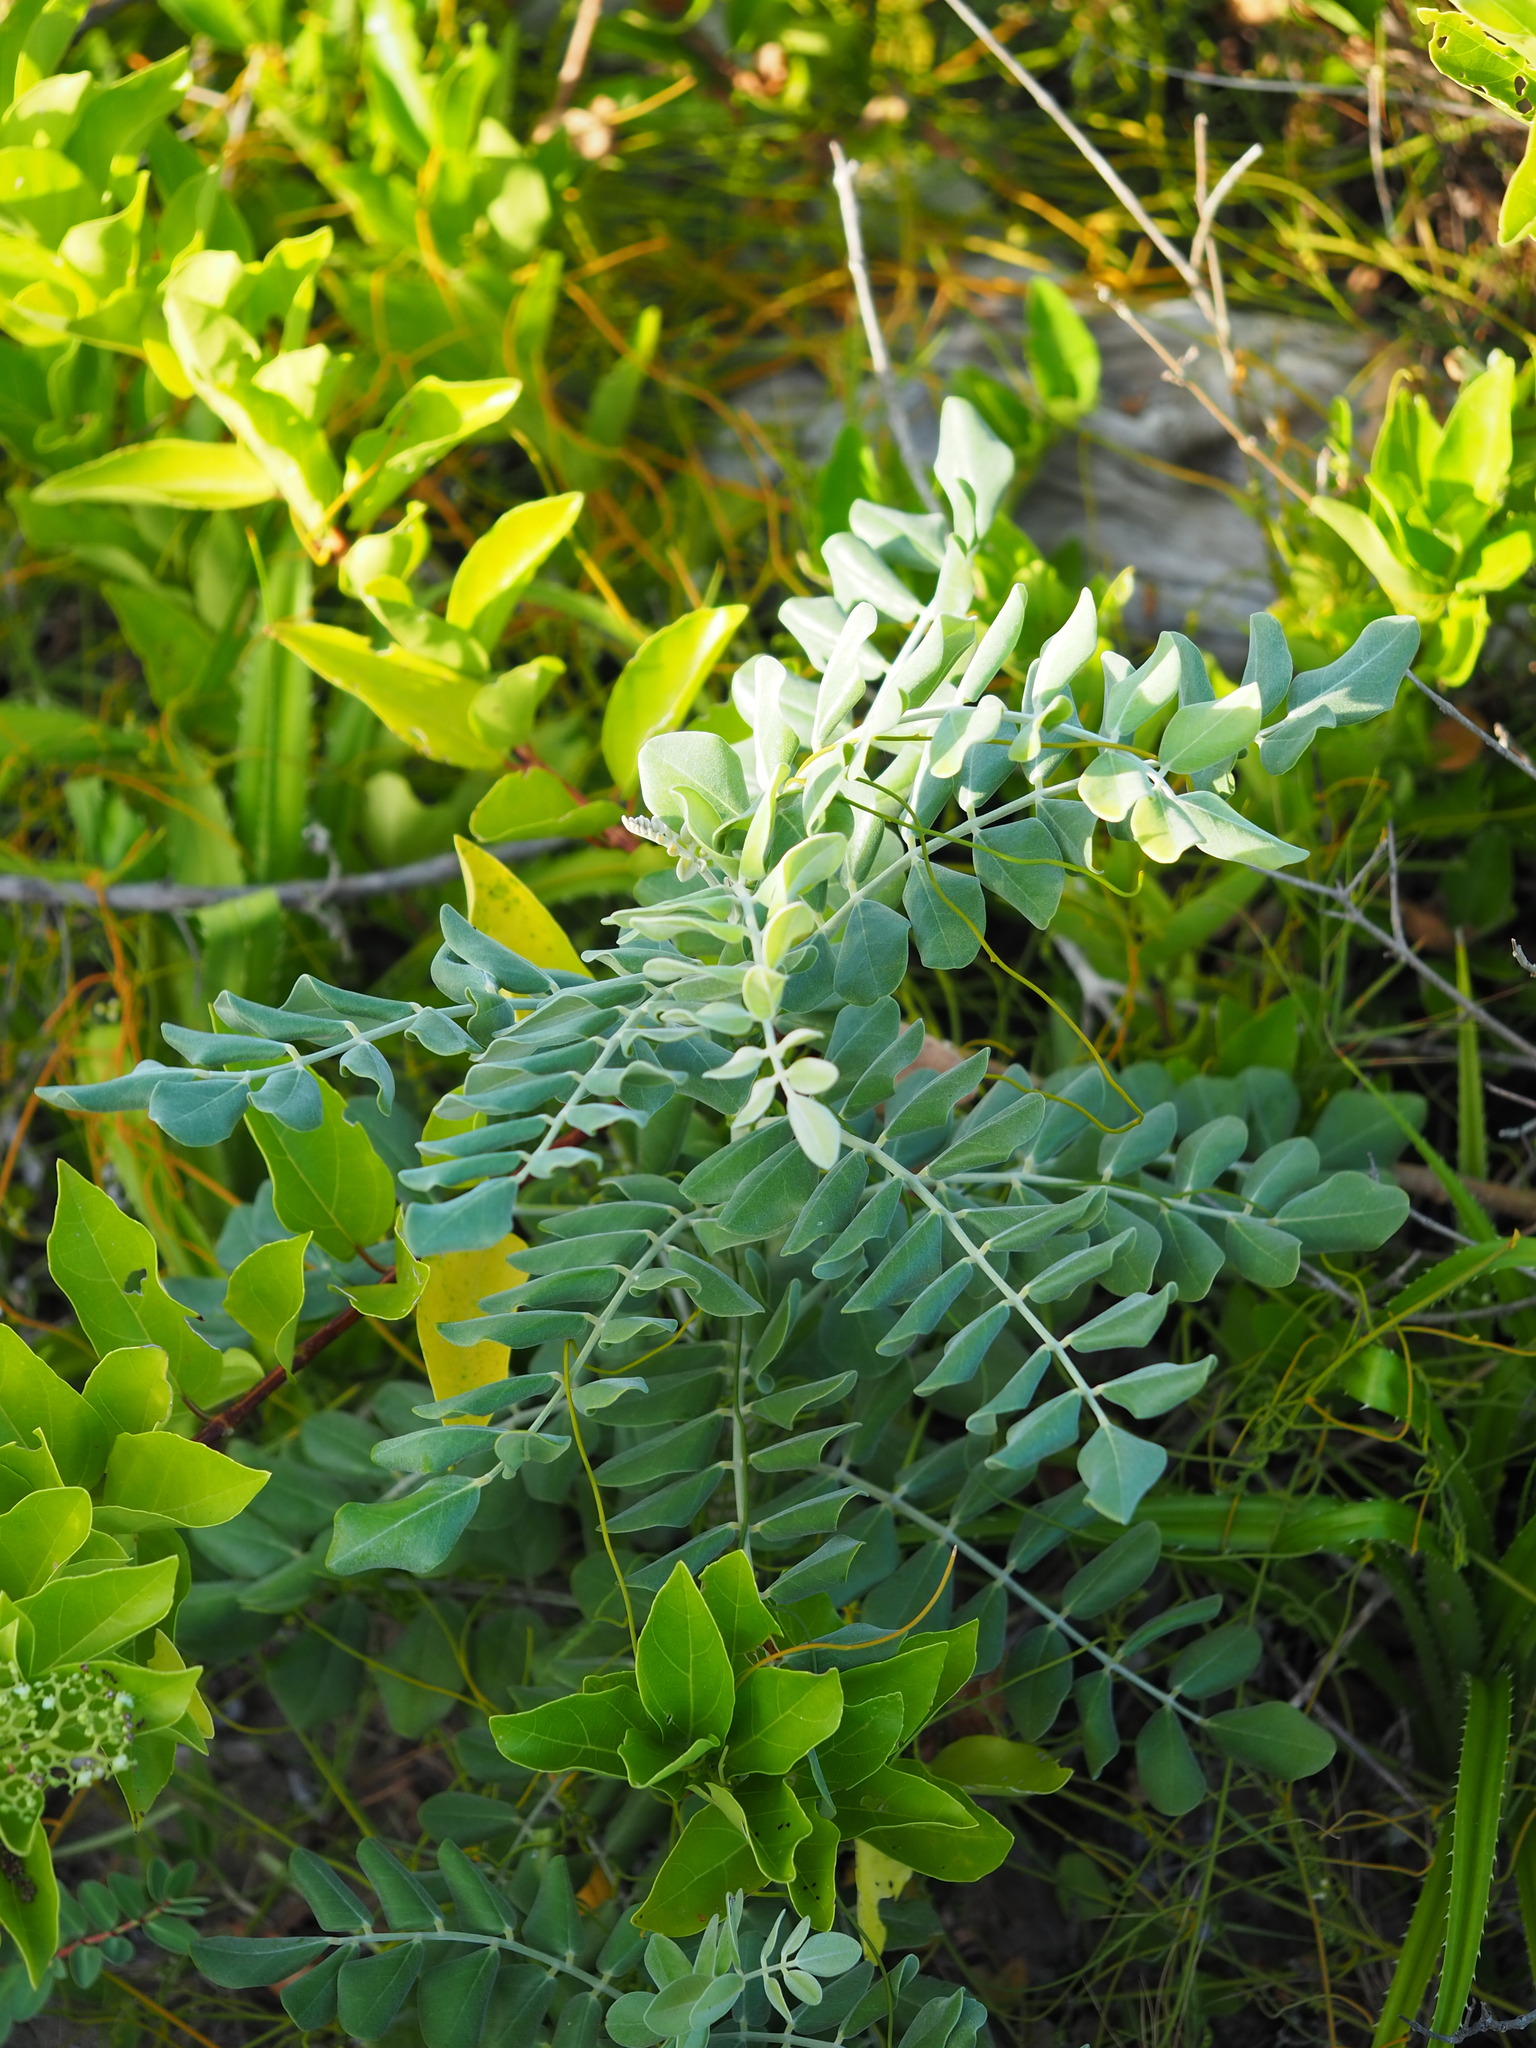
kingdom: Plantae
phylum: Tracheophyta
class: Magnoliopsida
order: Fabales
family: Fabaceae
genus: Sophora
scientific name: Sophora tomentosa
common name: Yellow necklacepod
